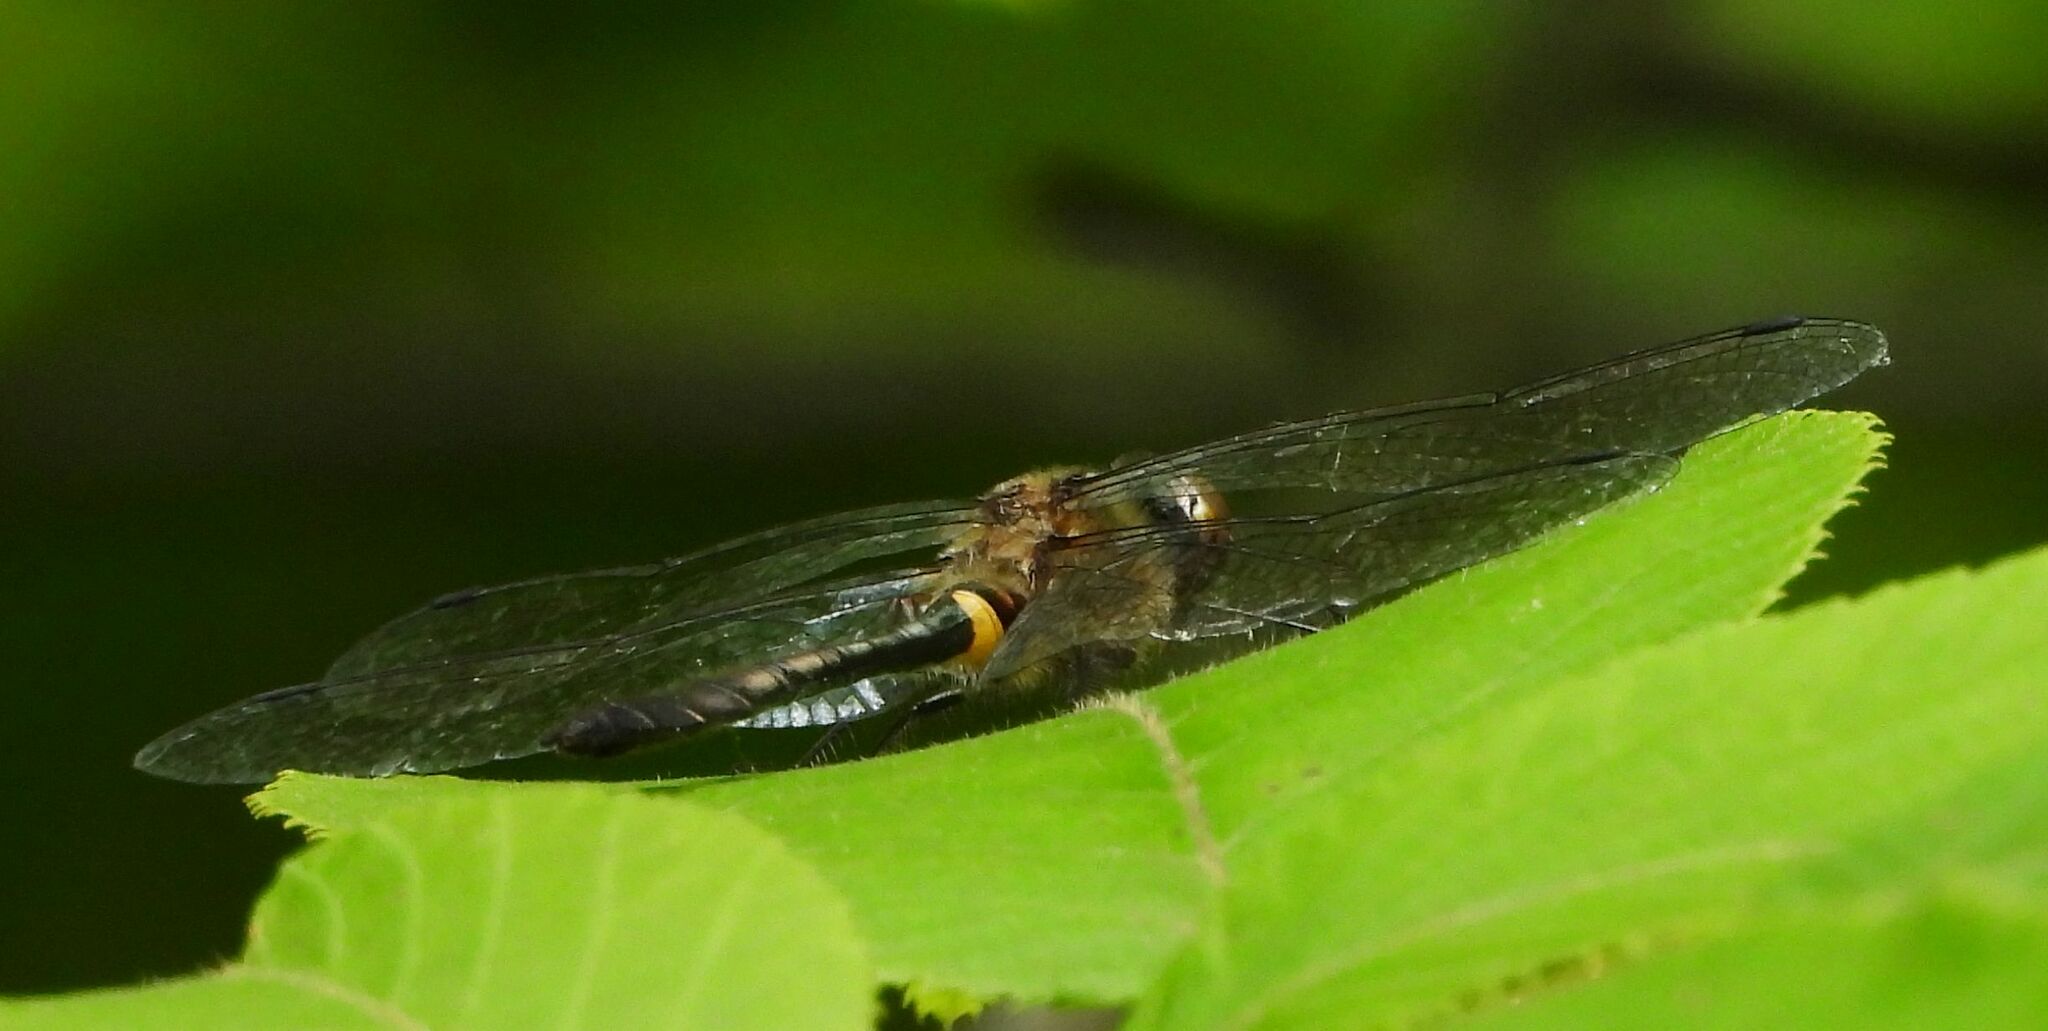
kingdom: Animalia
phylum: Arthropoda
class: Insecta
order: Odonata
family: Corduliidae
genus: Dorocordulia
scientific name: Dorocordulia libera
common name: Racket-tailed emerald
